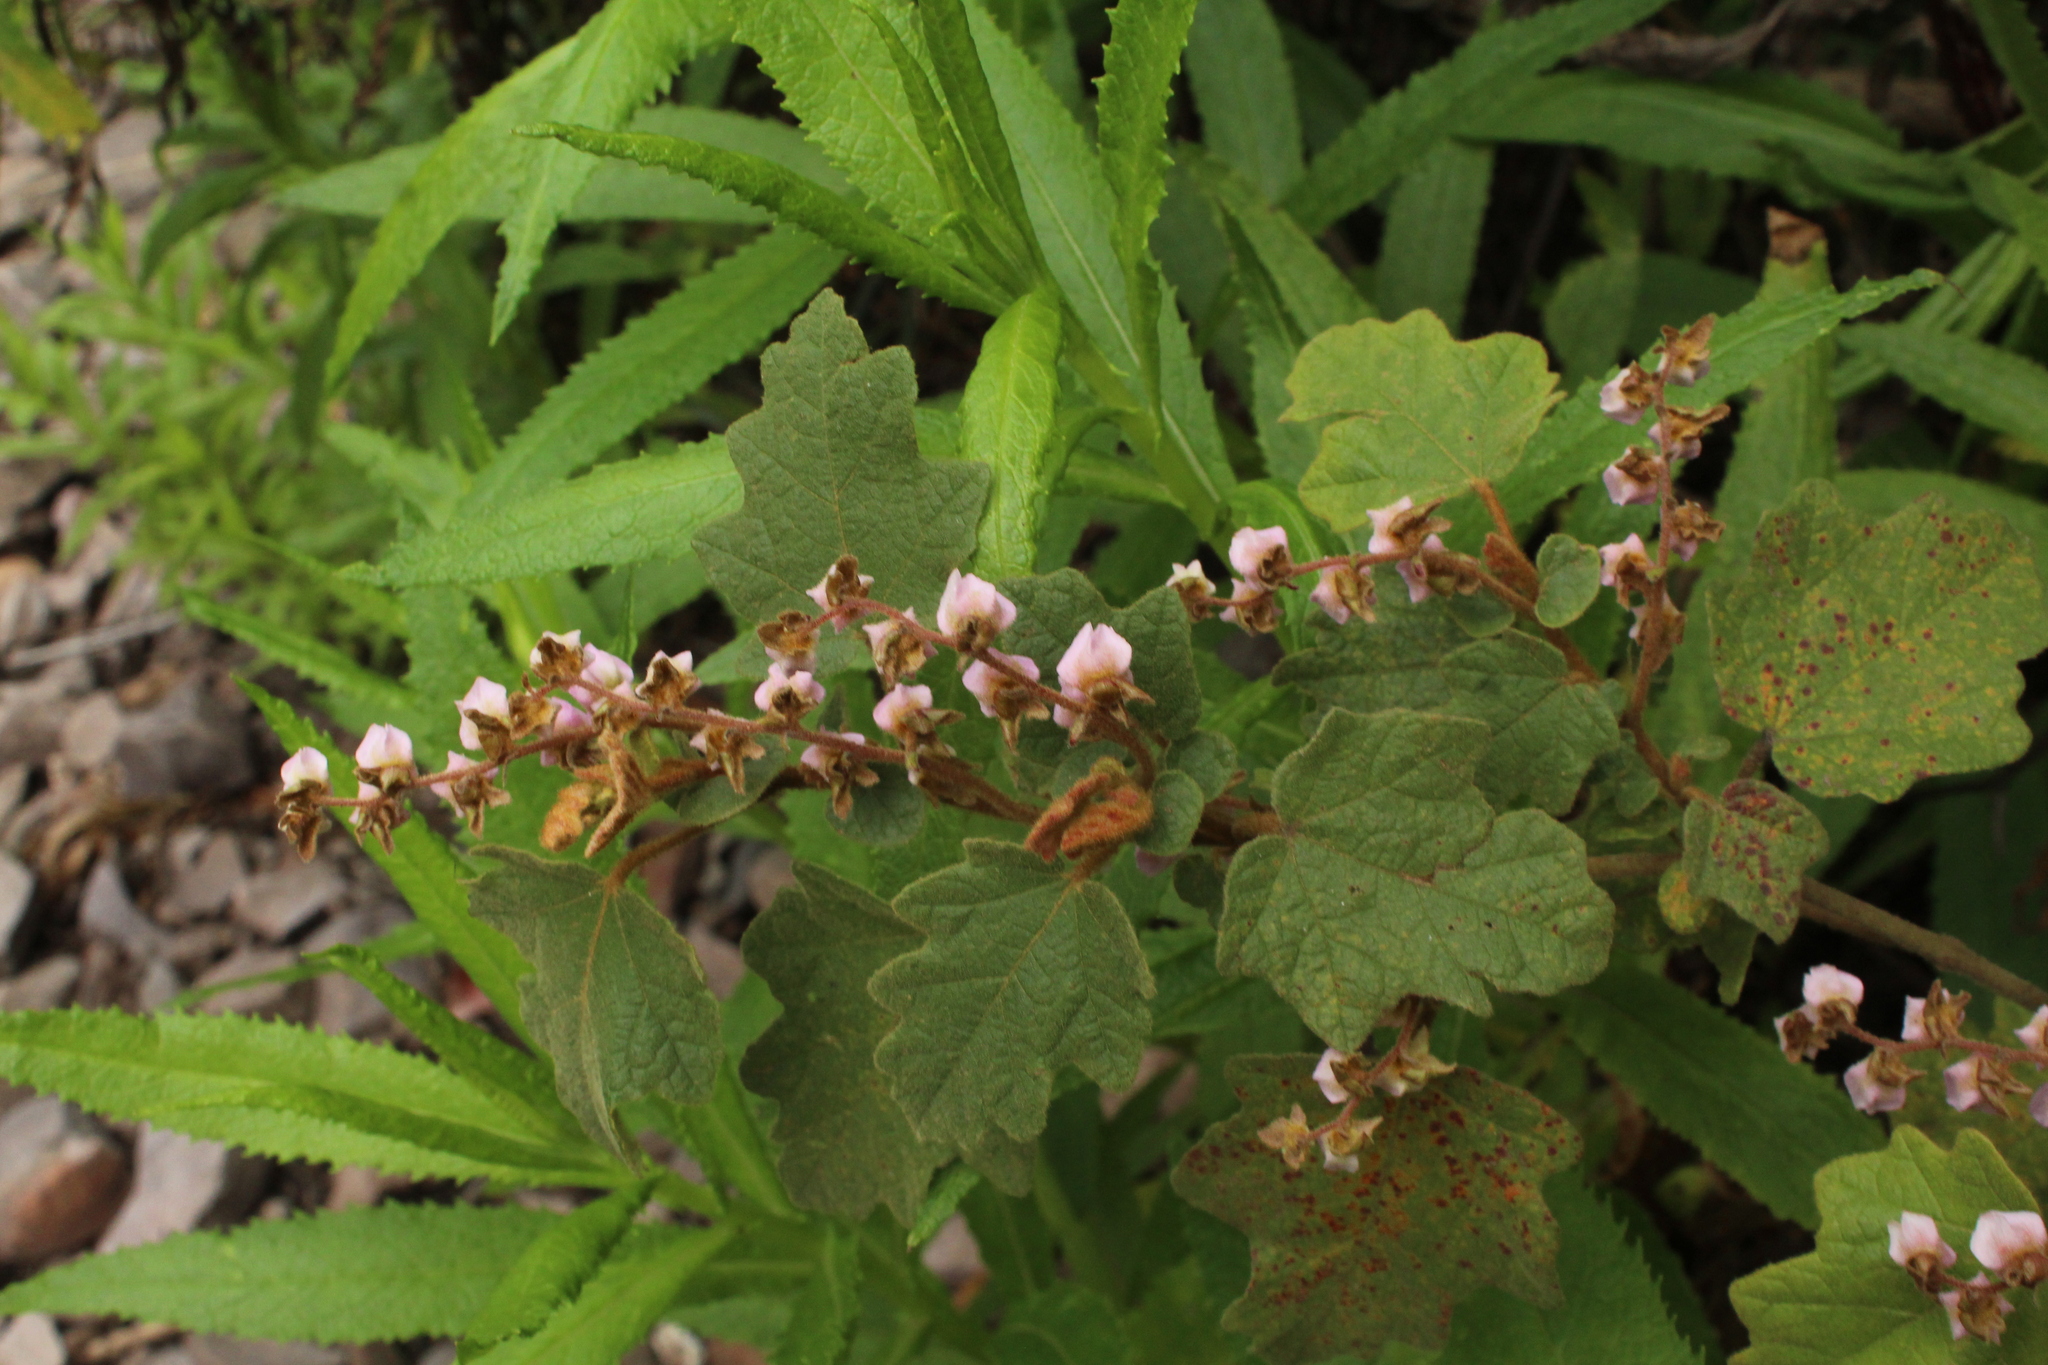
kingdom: Plantae
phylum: Tracheophyta
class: Magnoliopsida
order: Malvales
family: Malvaceae
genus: Thomasia
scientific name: Thomasia brachystachys
